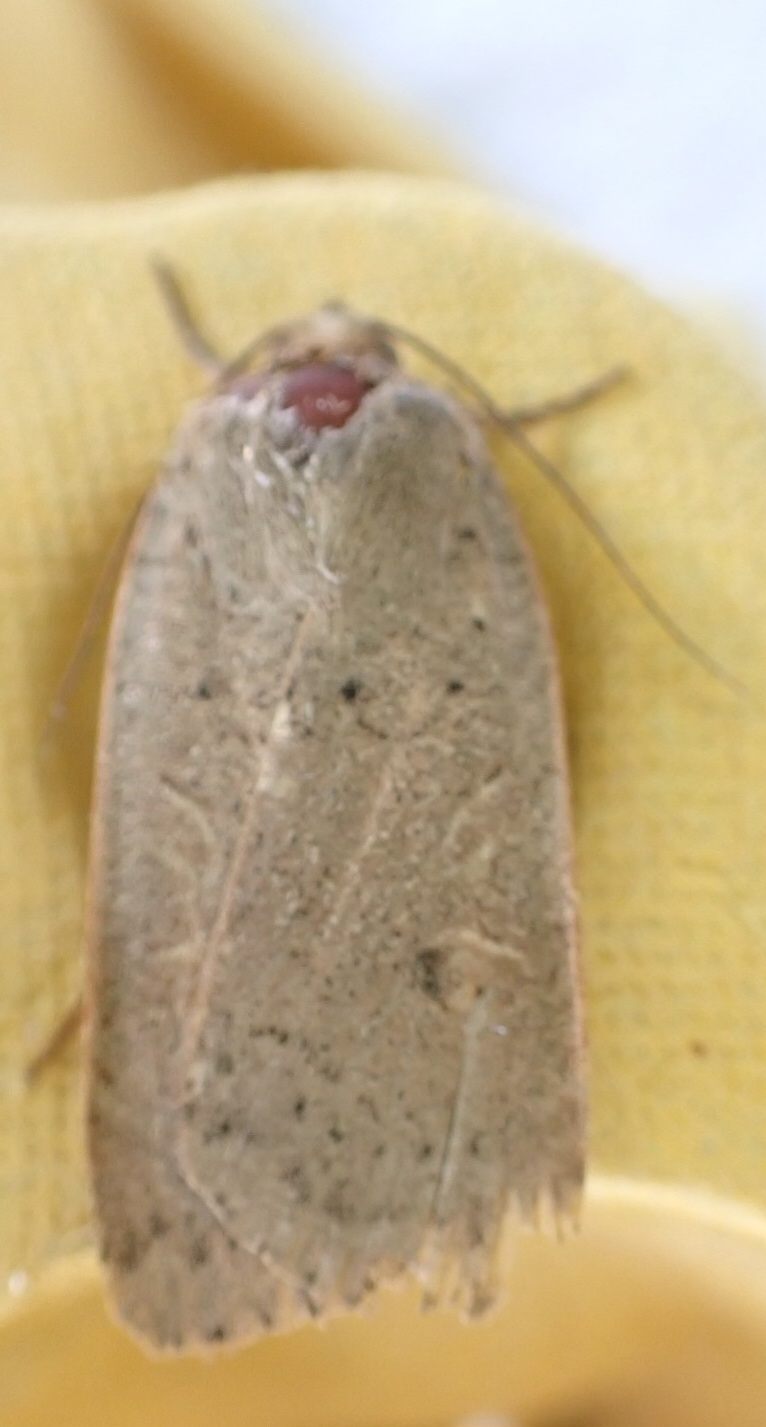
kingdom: Animalia
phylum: Arthropoda
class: Insecta
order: Lepidoptera
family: Noctuidae
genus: Noctua
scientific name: Noctua comes
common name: Lesser yellow underwing
